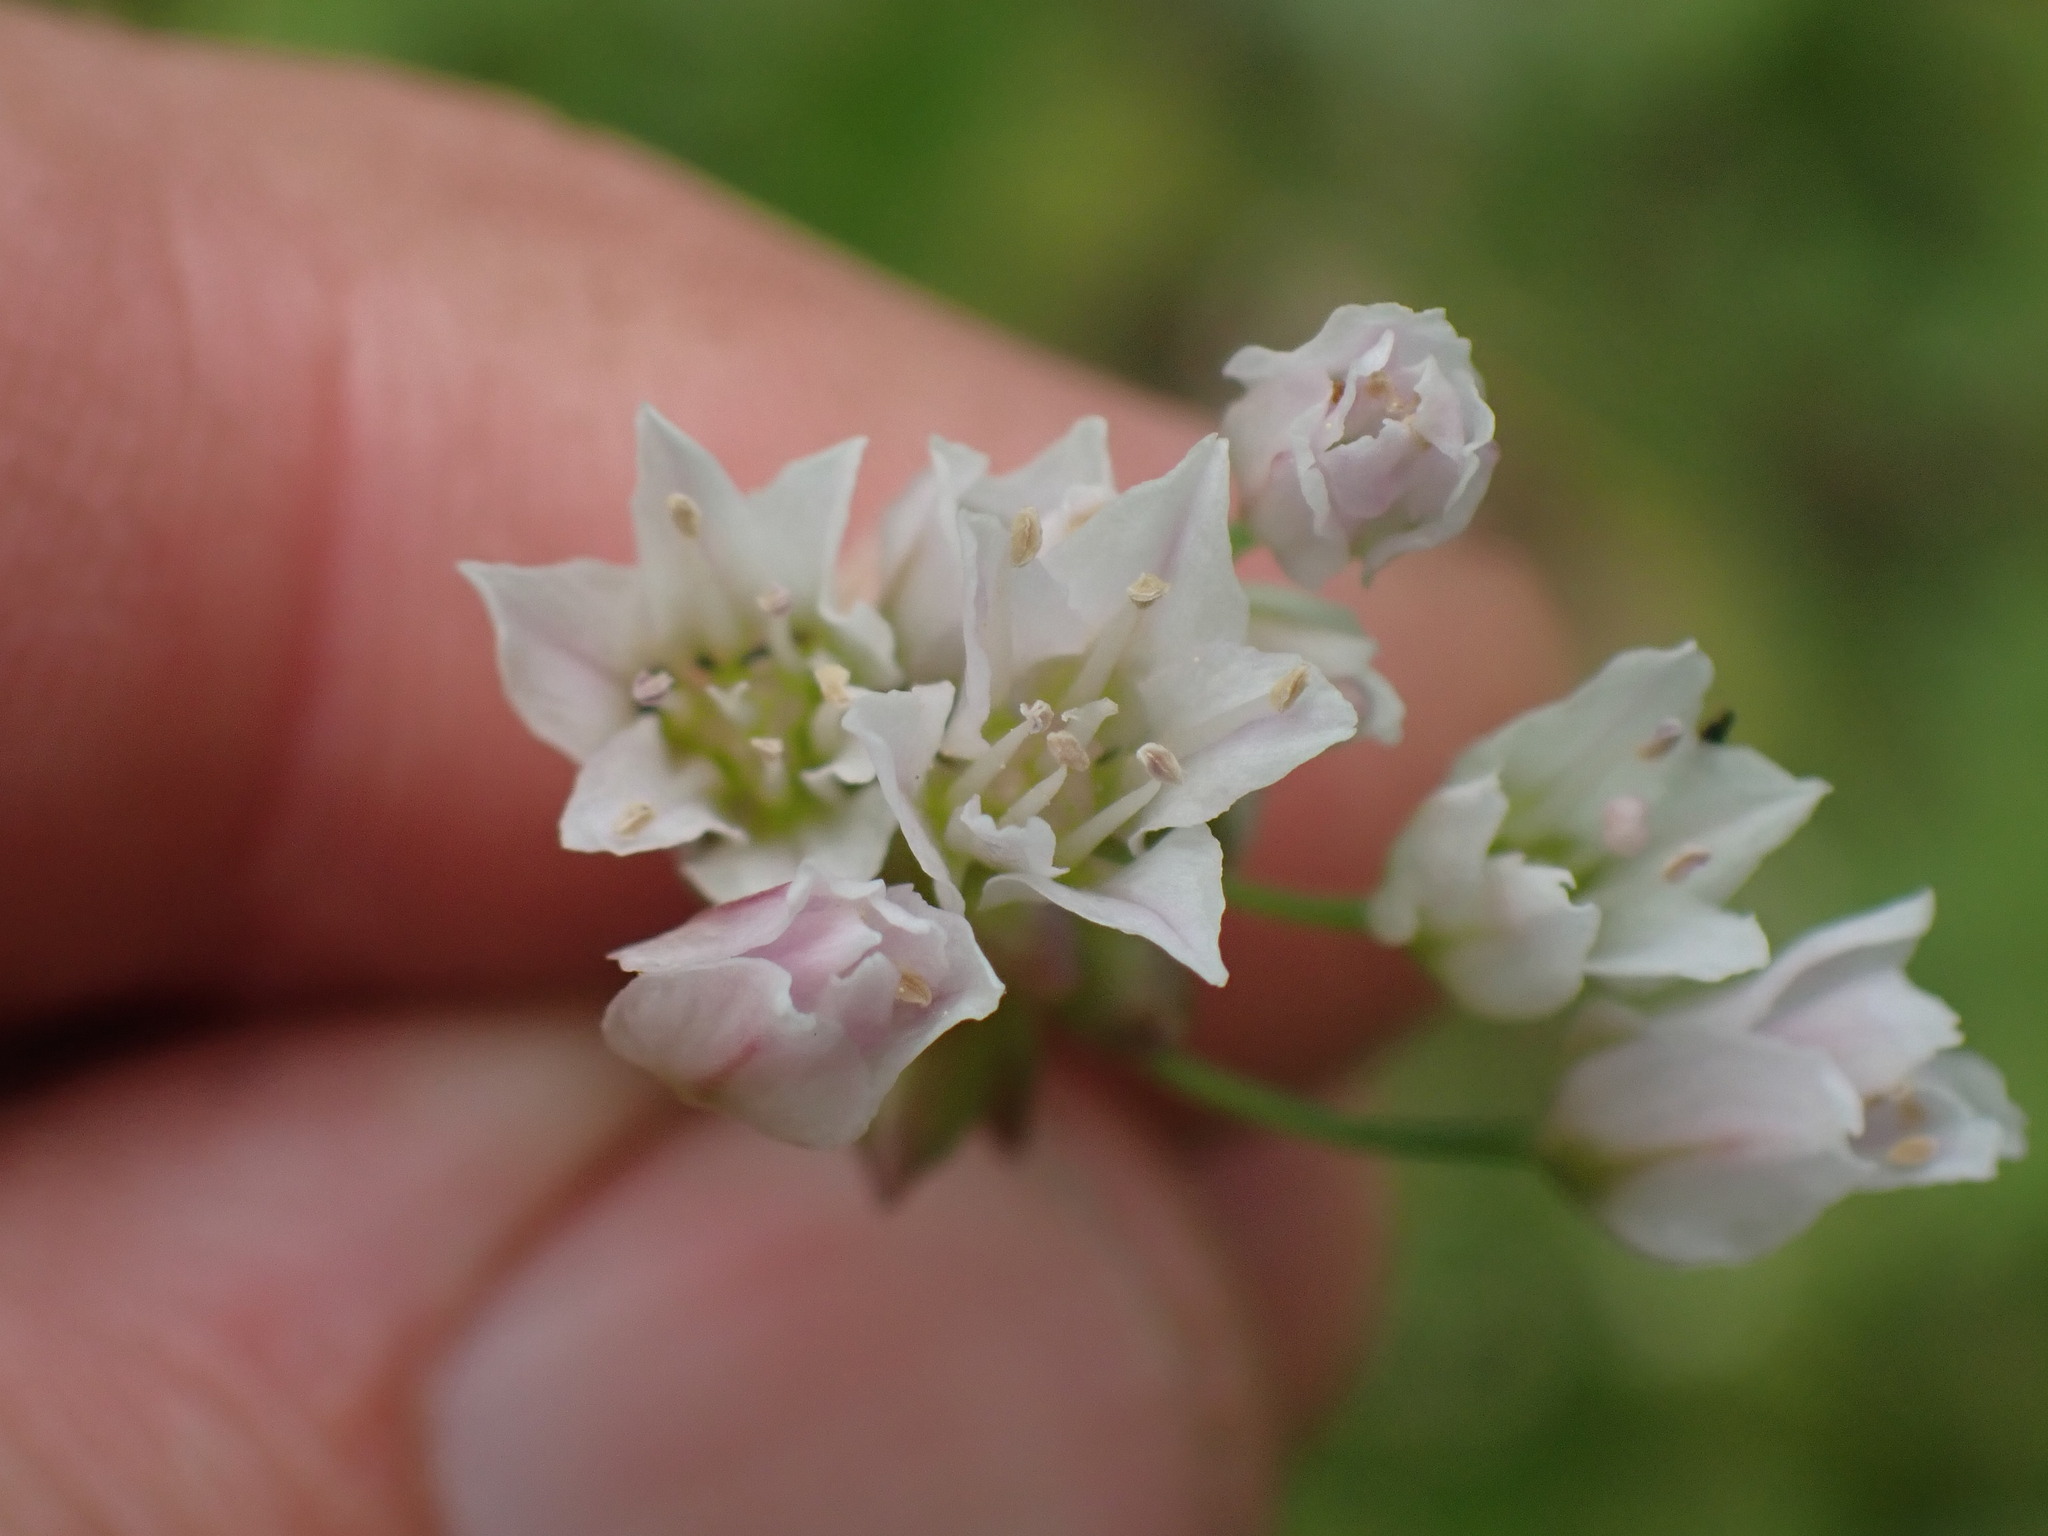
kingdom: Plantae
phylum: Tracheophyta
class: Liliopsida
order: Asparagales
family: Amaryllidaceae
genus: Allium
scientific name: Allium geyeri
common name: Geyer's onion
